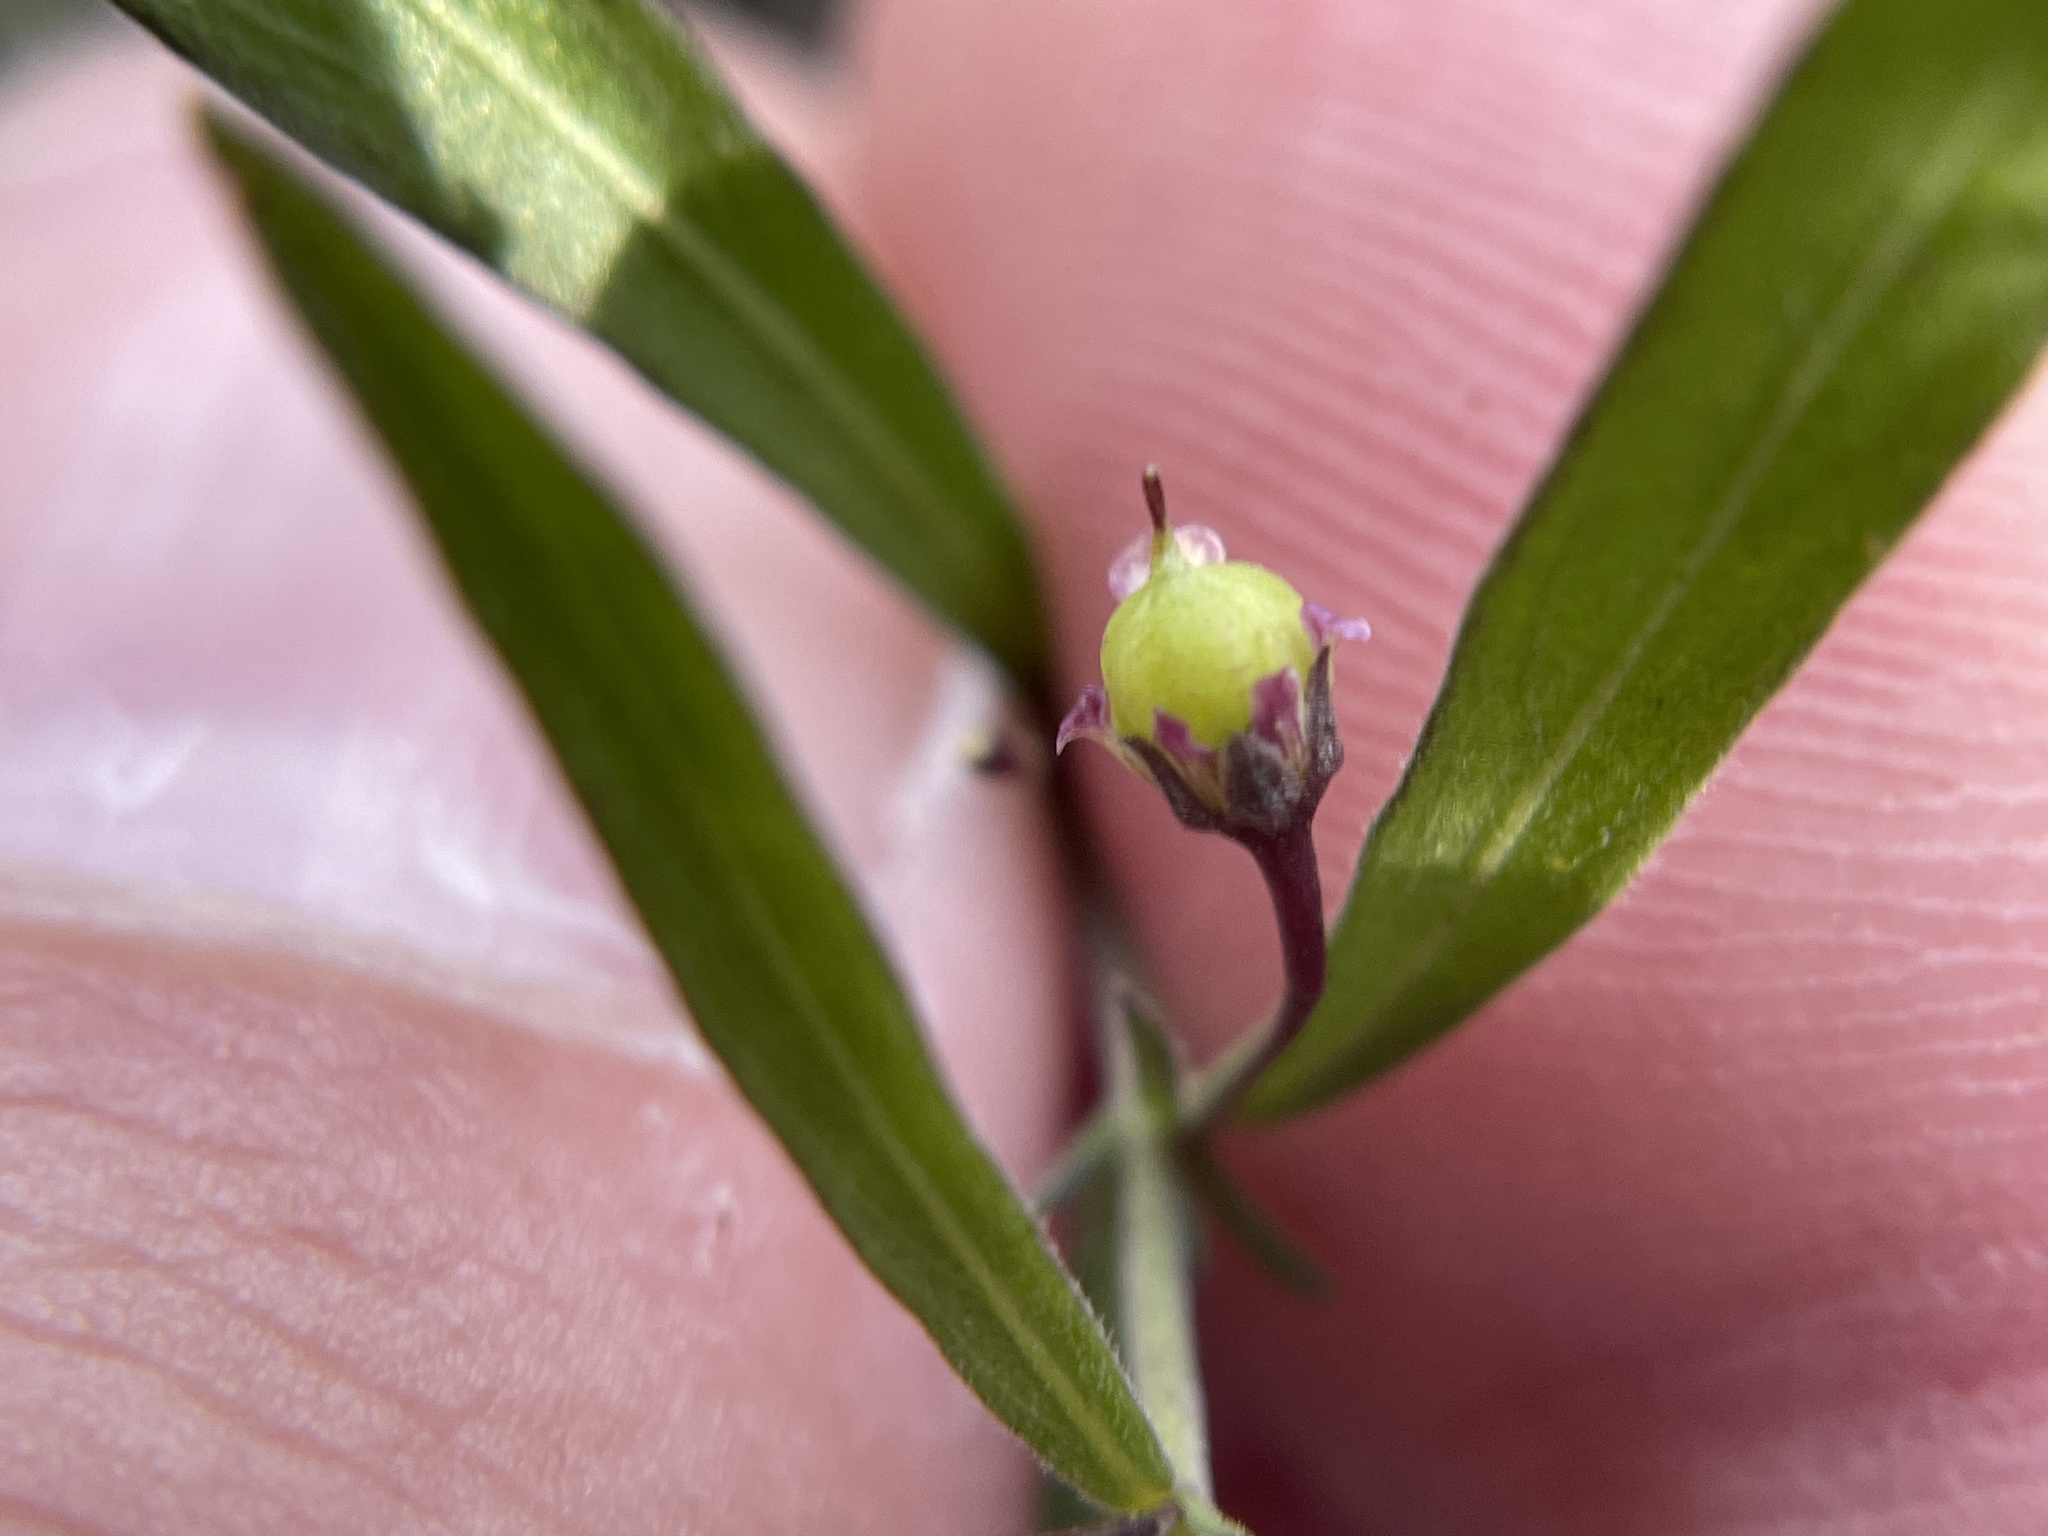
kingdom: Plantae
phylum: Tracheophyta
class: Magnoliopsida
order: Malpighiales
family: Violaceae
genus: Pombalia
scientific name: Pombalia verticillata
